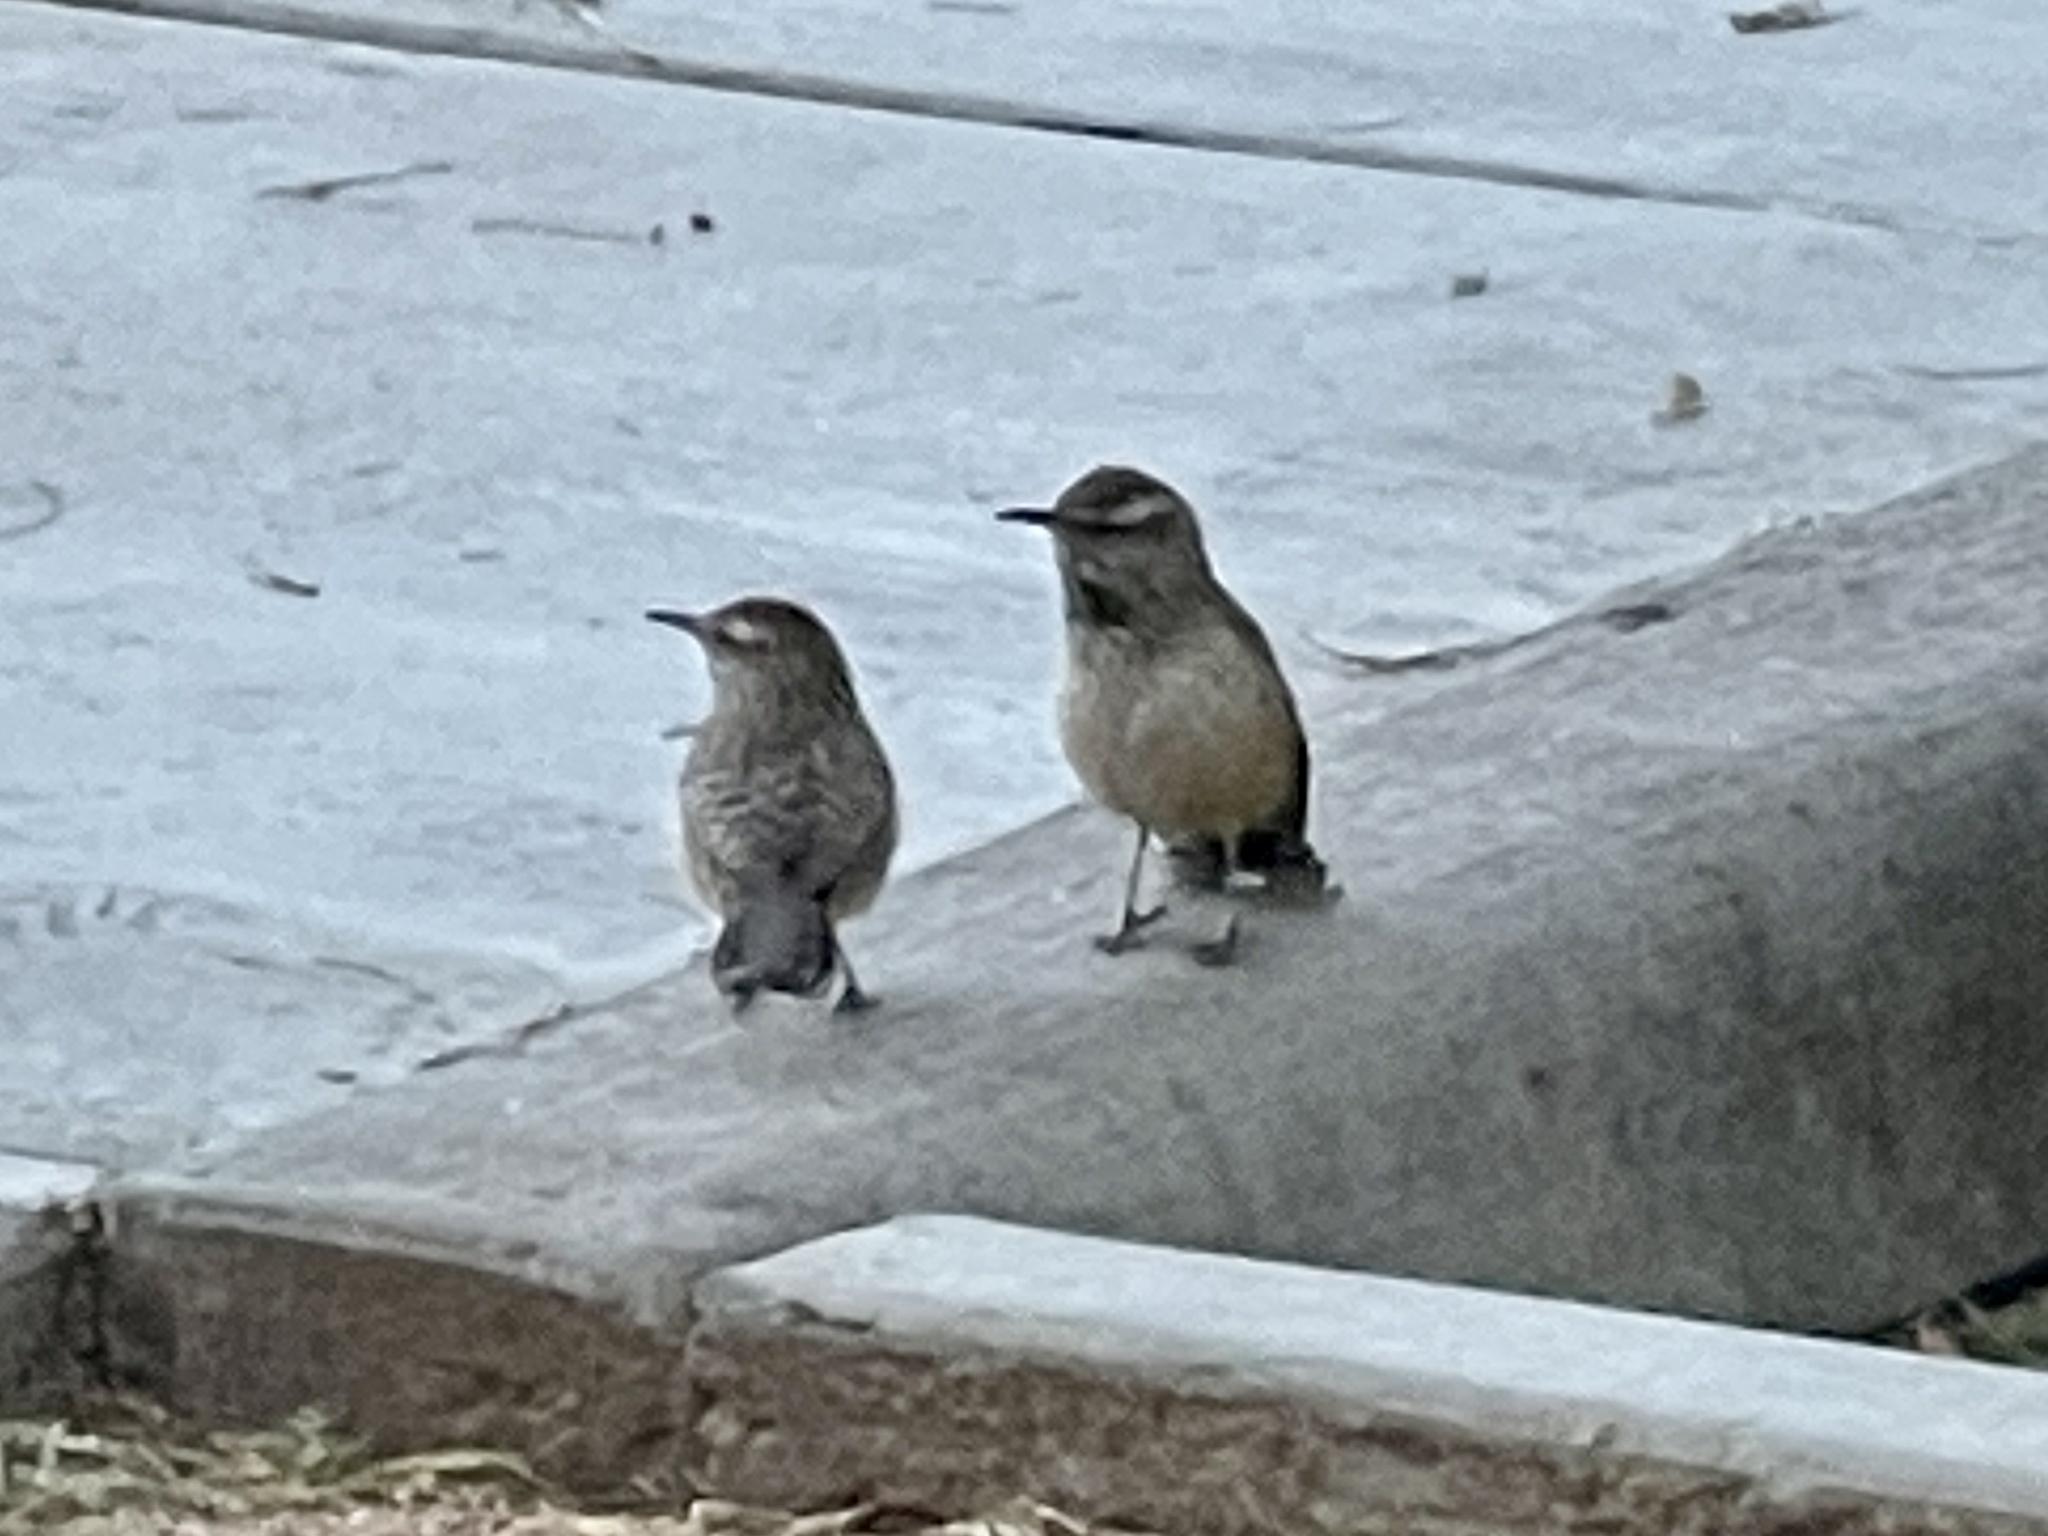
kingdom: Animalia
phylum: Chordata
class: Aves
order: Passeriformes
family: Troglodytidae
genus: Campylorhynchus
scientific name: Campylorhynchus brunneicapillus
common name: Cactus wren
